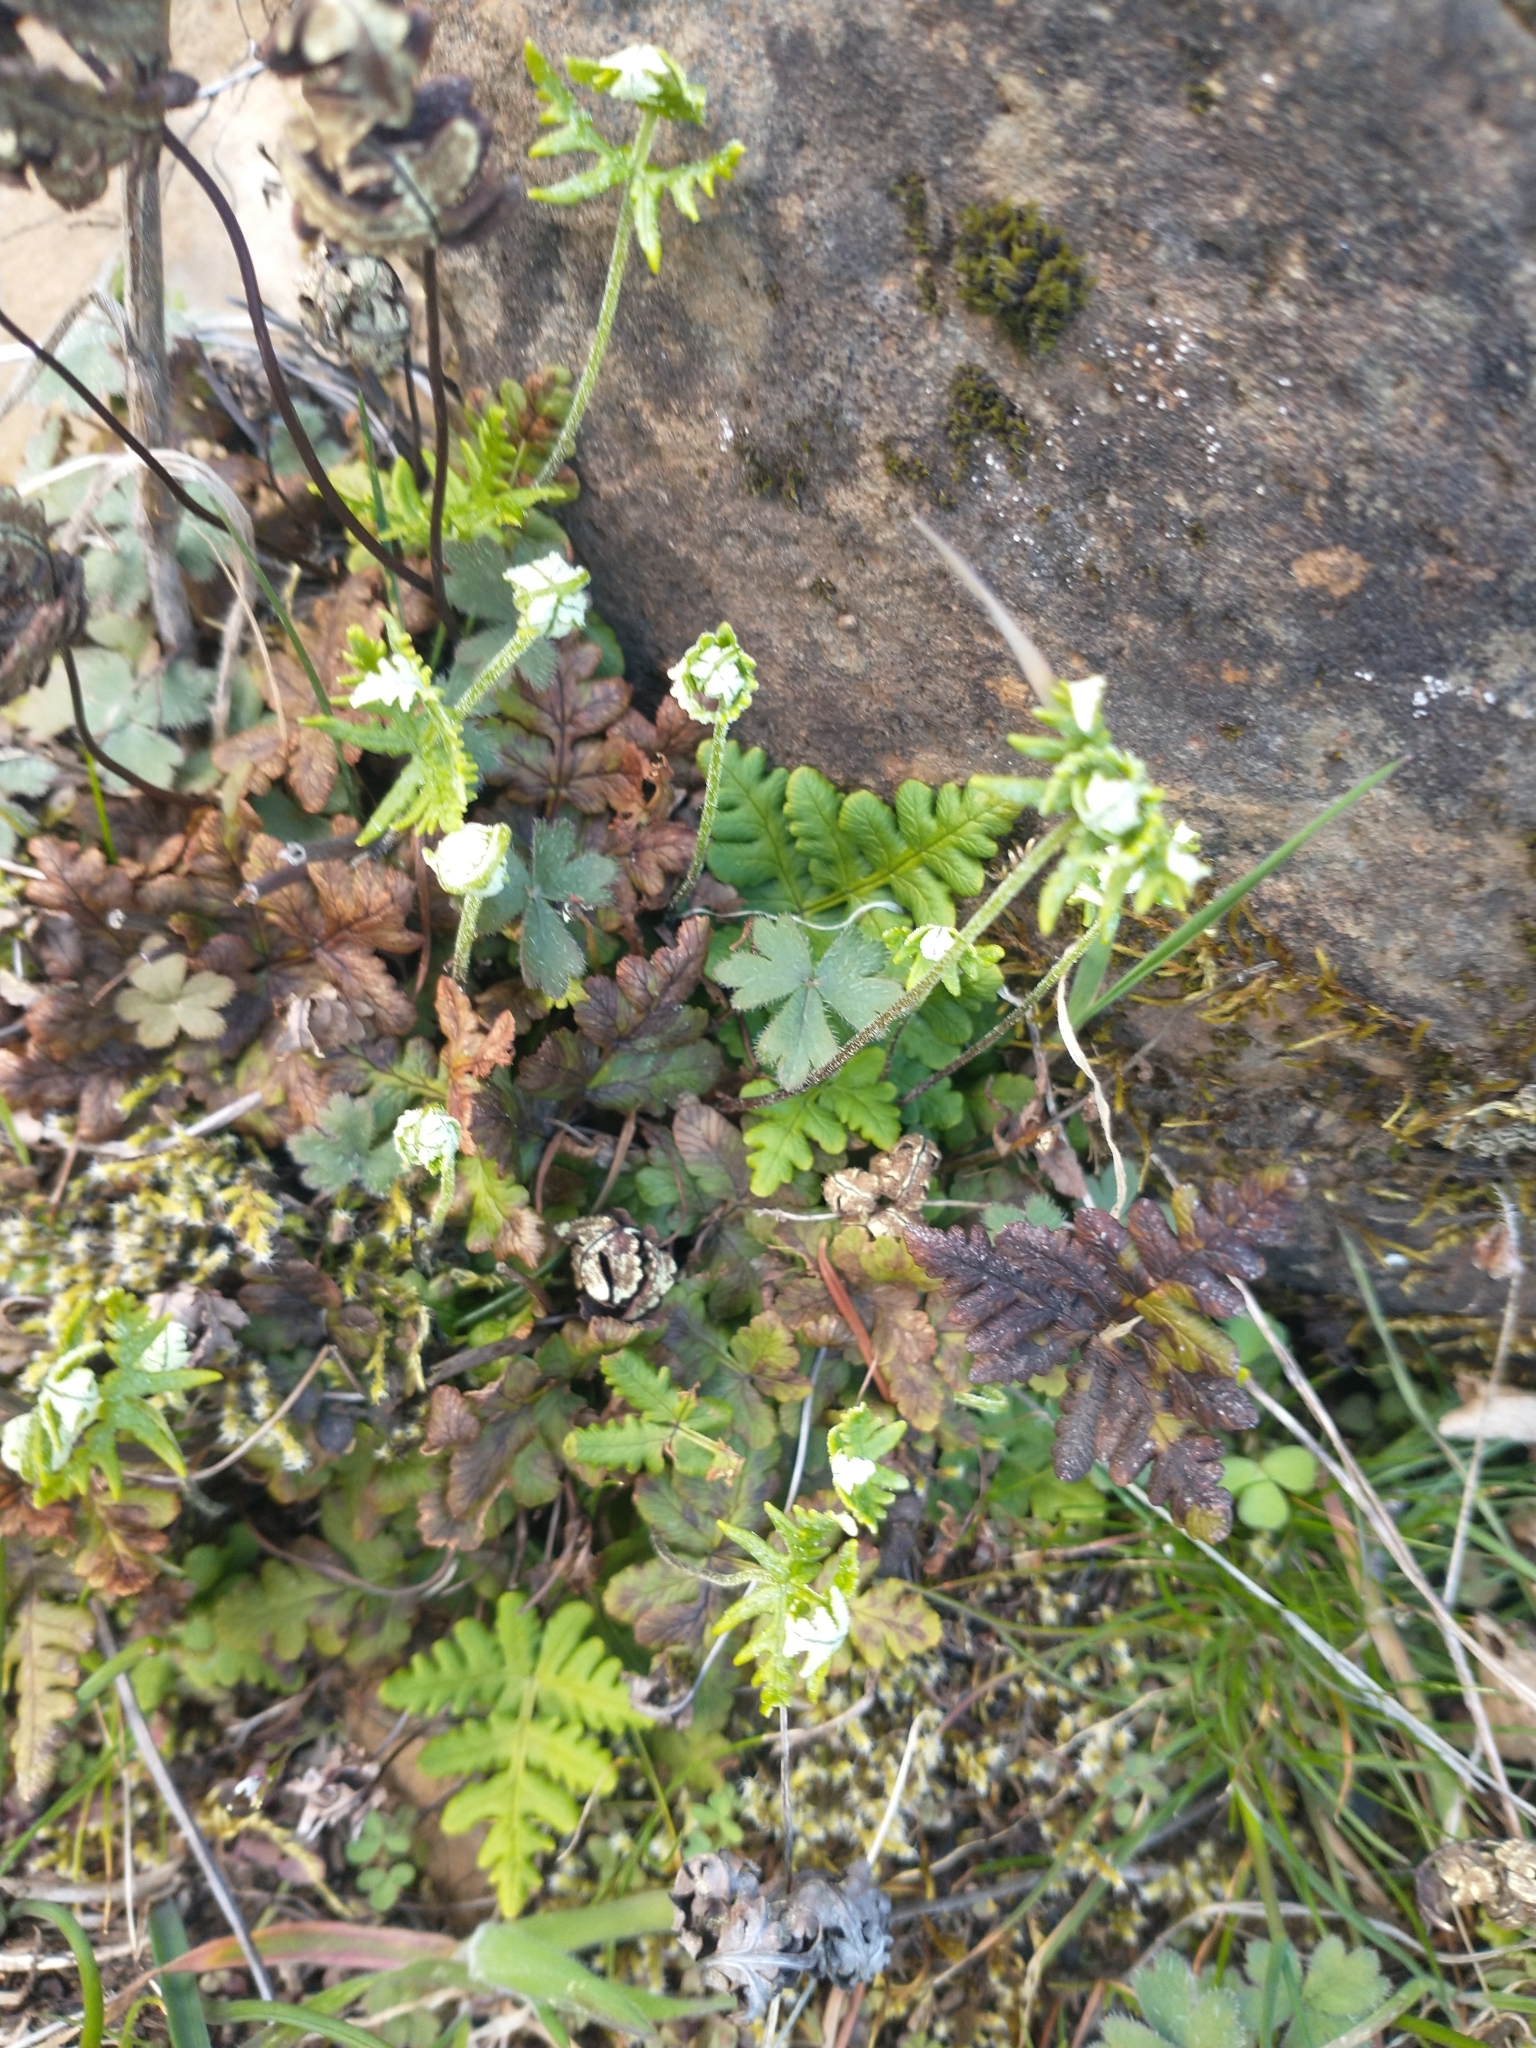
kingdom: Plantae
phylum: Tracheophyta
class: Polypodiopsida
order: Polypodiales
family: Pteridaceae
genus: Pentagramma
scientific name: Pentagramma triangularis
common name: Gold fern
